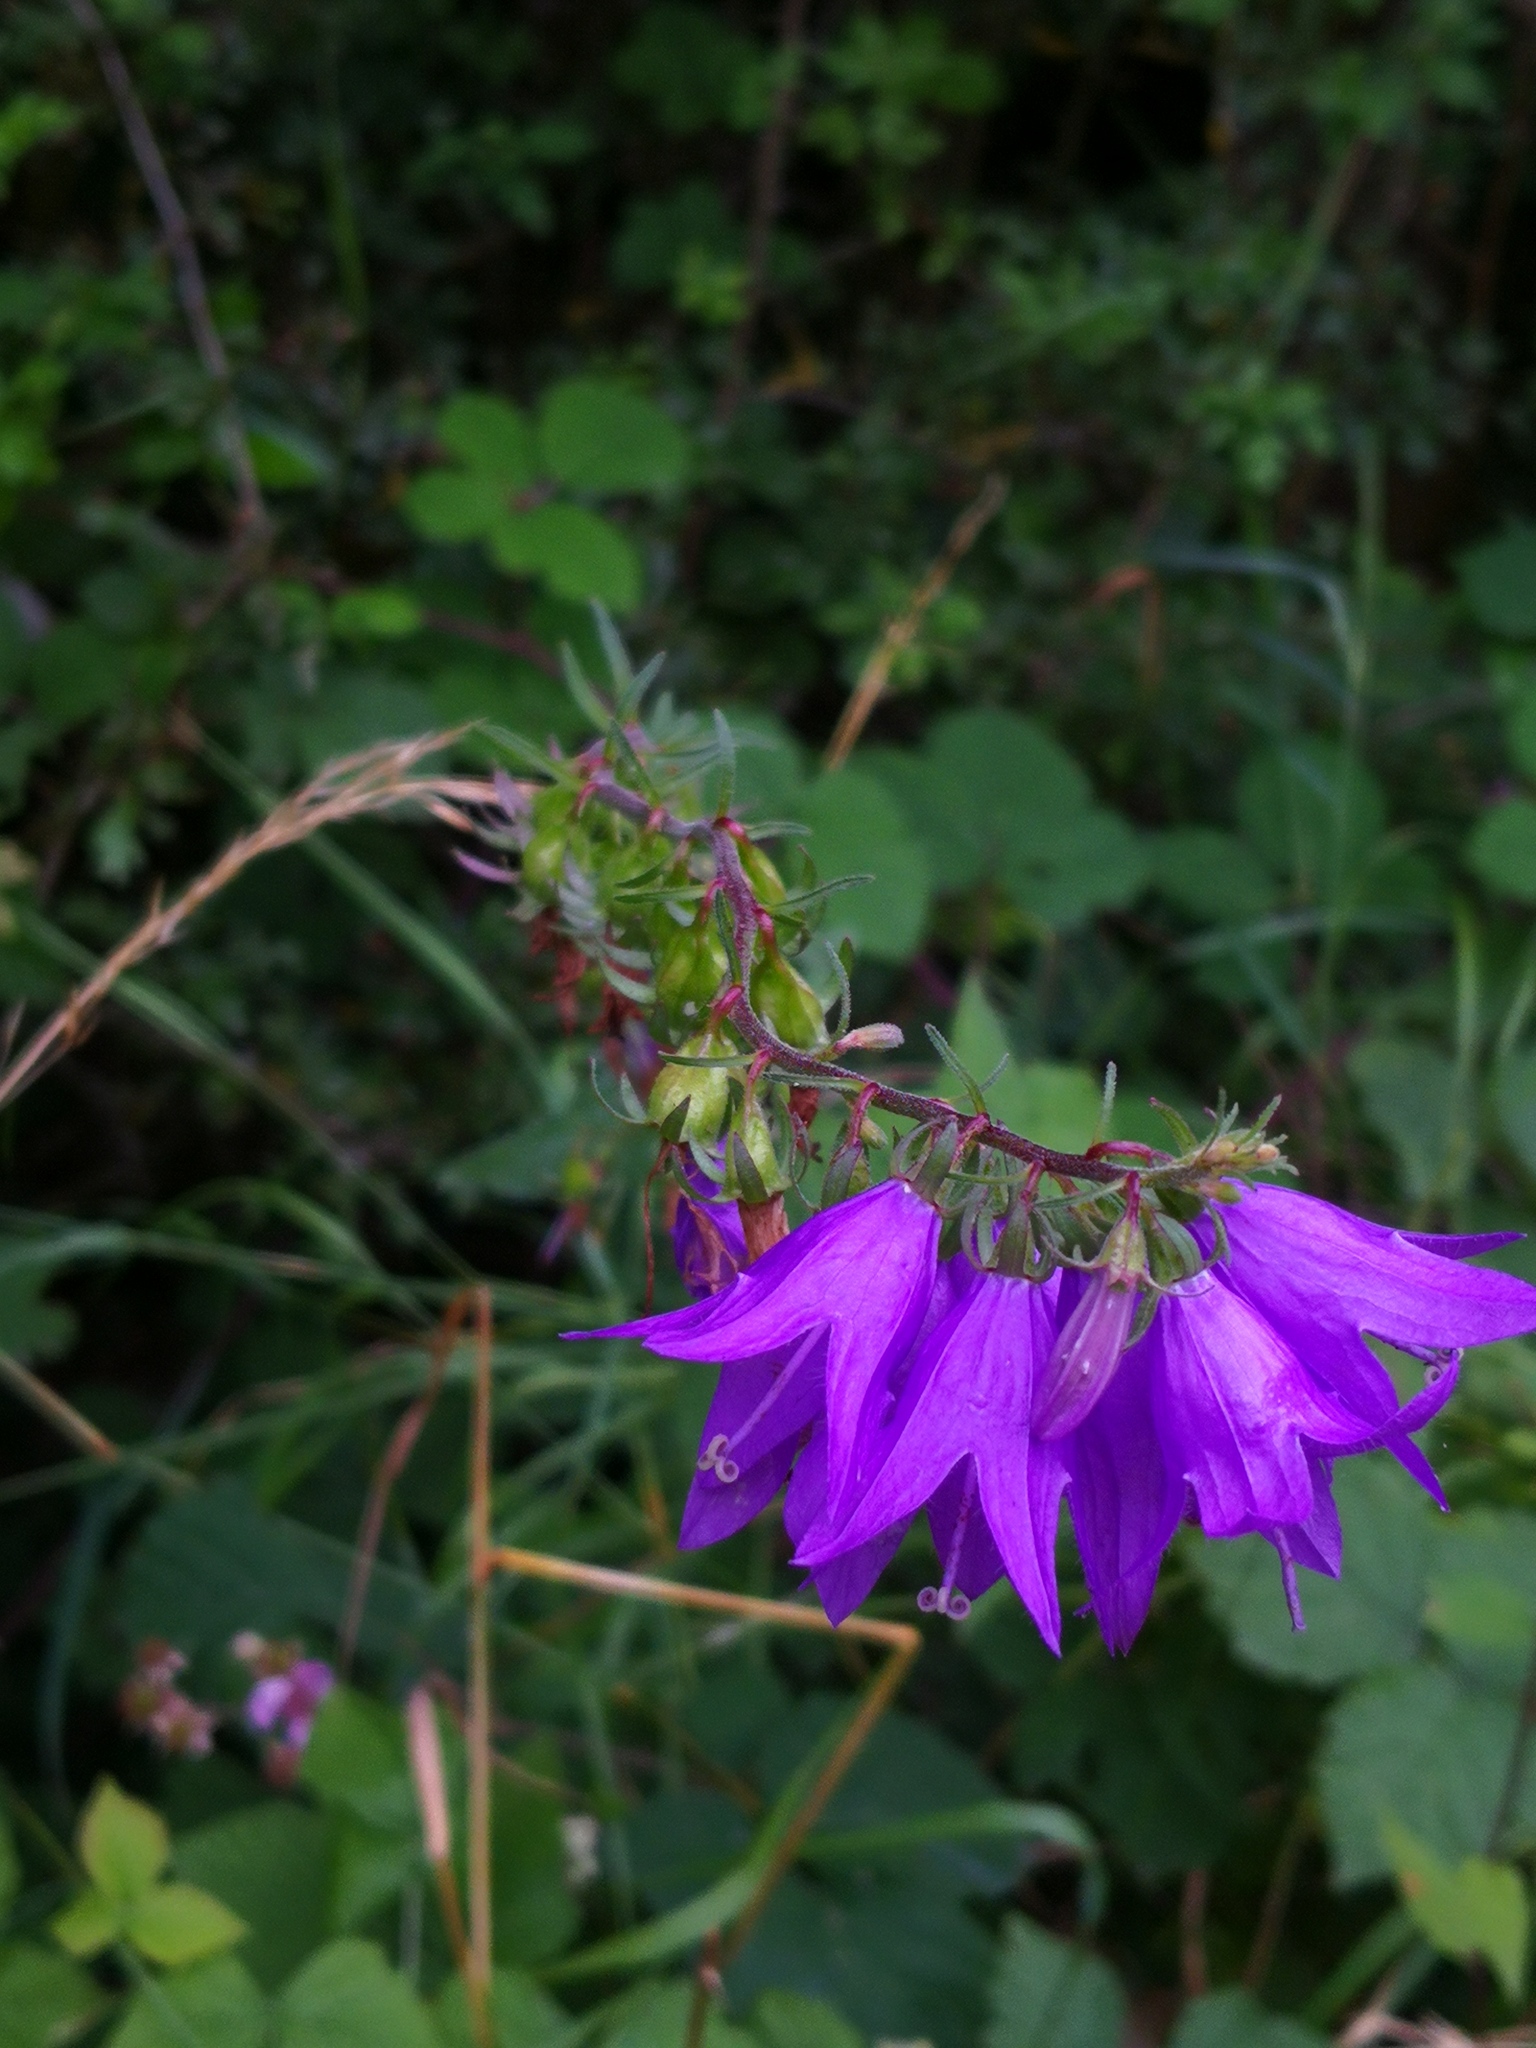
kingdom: Plantae
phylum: Tracheophyta
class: Magnoliopsida
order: Asterales
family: Campanulaceae
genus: Campanula
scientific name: Campanula rapunculoides
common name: Creeping bellflower
